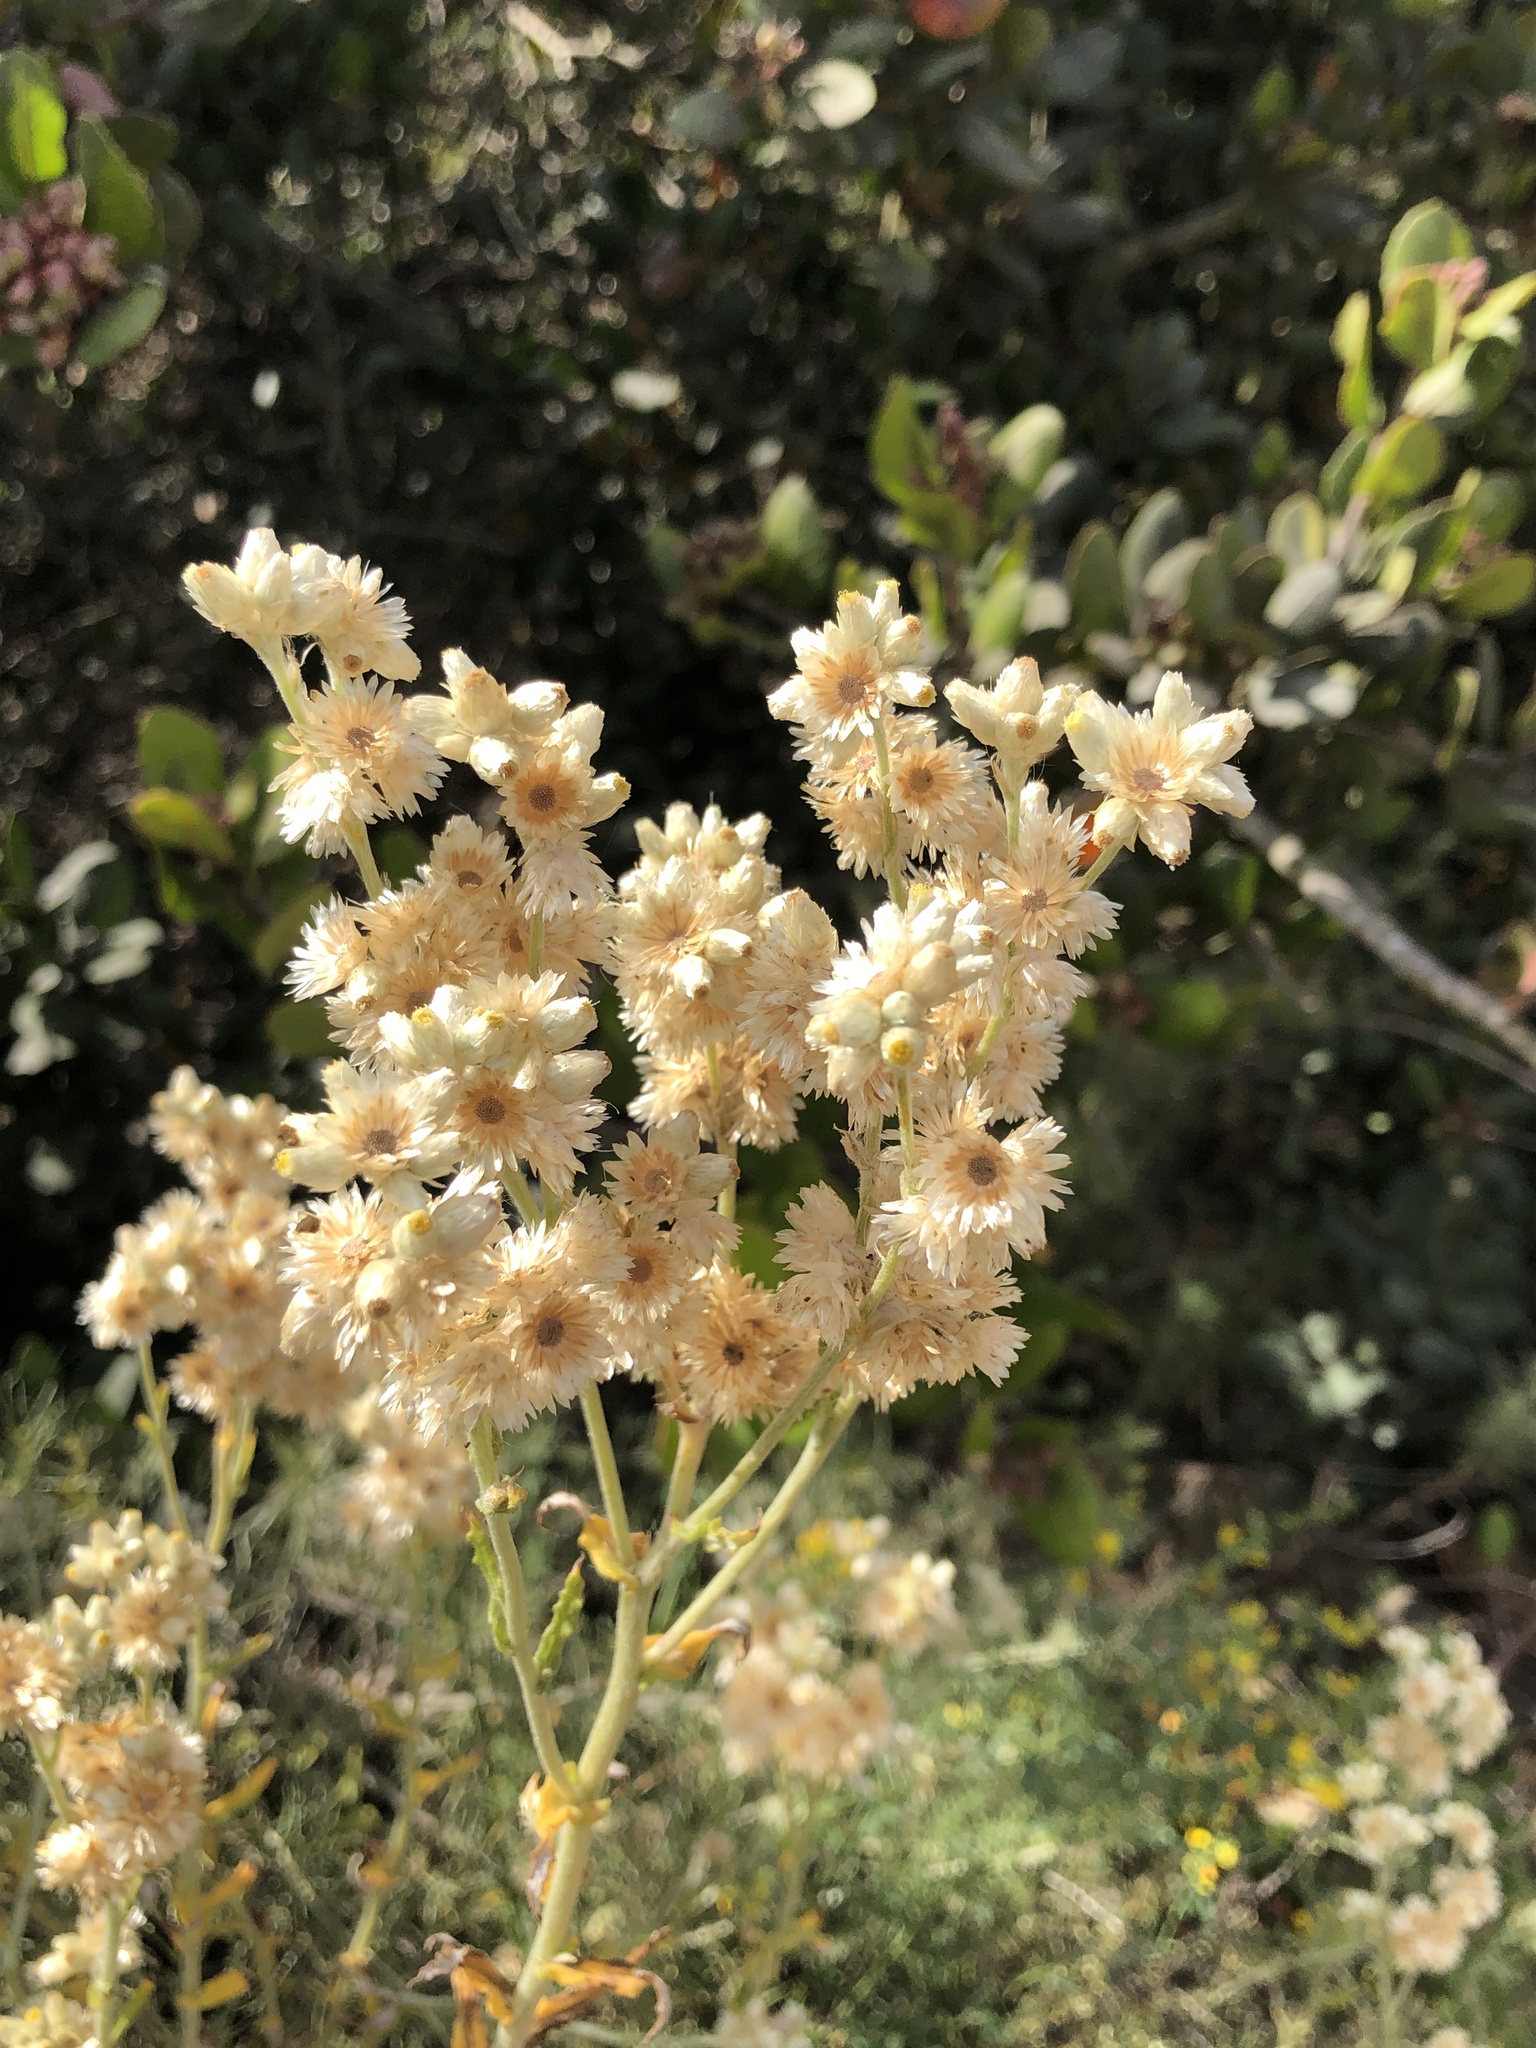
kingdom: Plantae
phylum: Tracheophyta
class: Magnoliopsida
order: Asterales
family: Asteraceae
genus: Pseudognaphalium
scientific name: Pseudognaphalium biolettii
